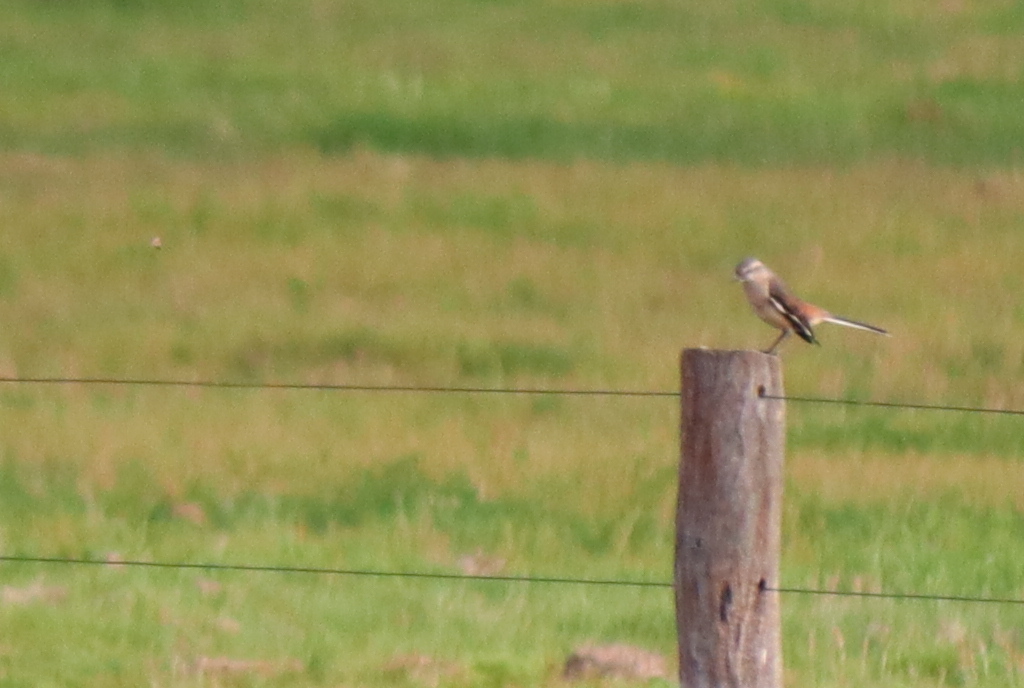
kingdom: Animalia
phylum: Chordata
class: Aves
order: Passeriformes
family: Mimidae
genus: Mimus
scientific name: Mimus triurus
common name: White-banded mockingbird
